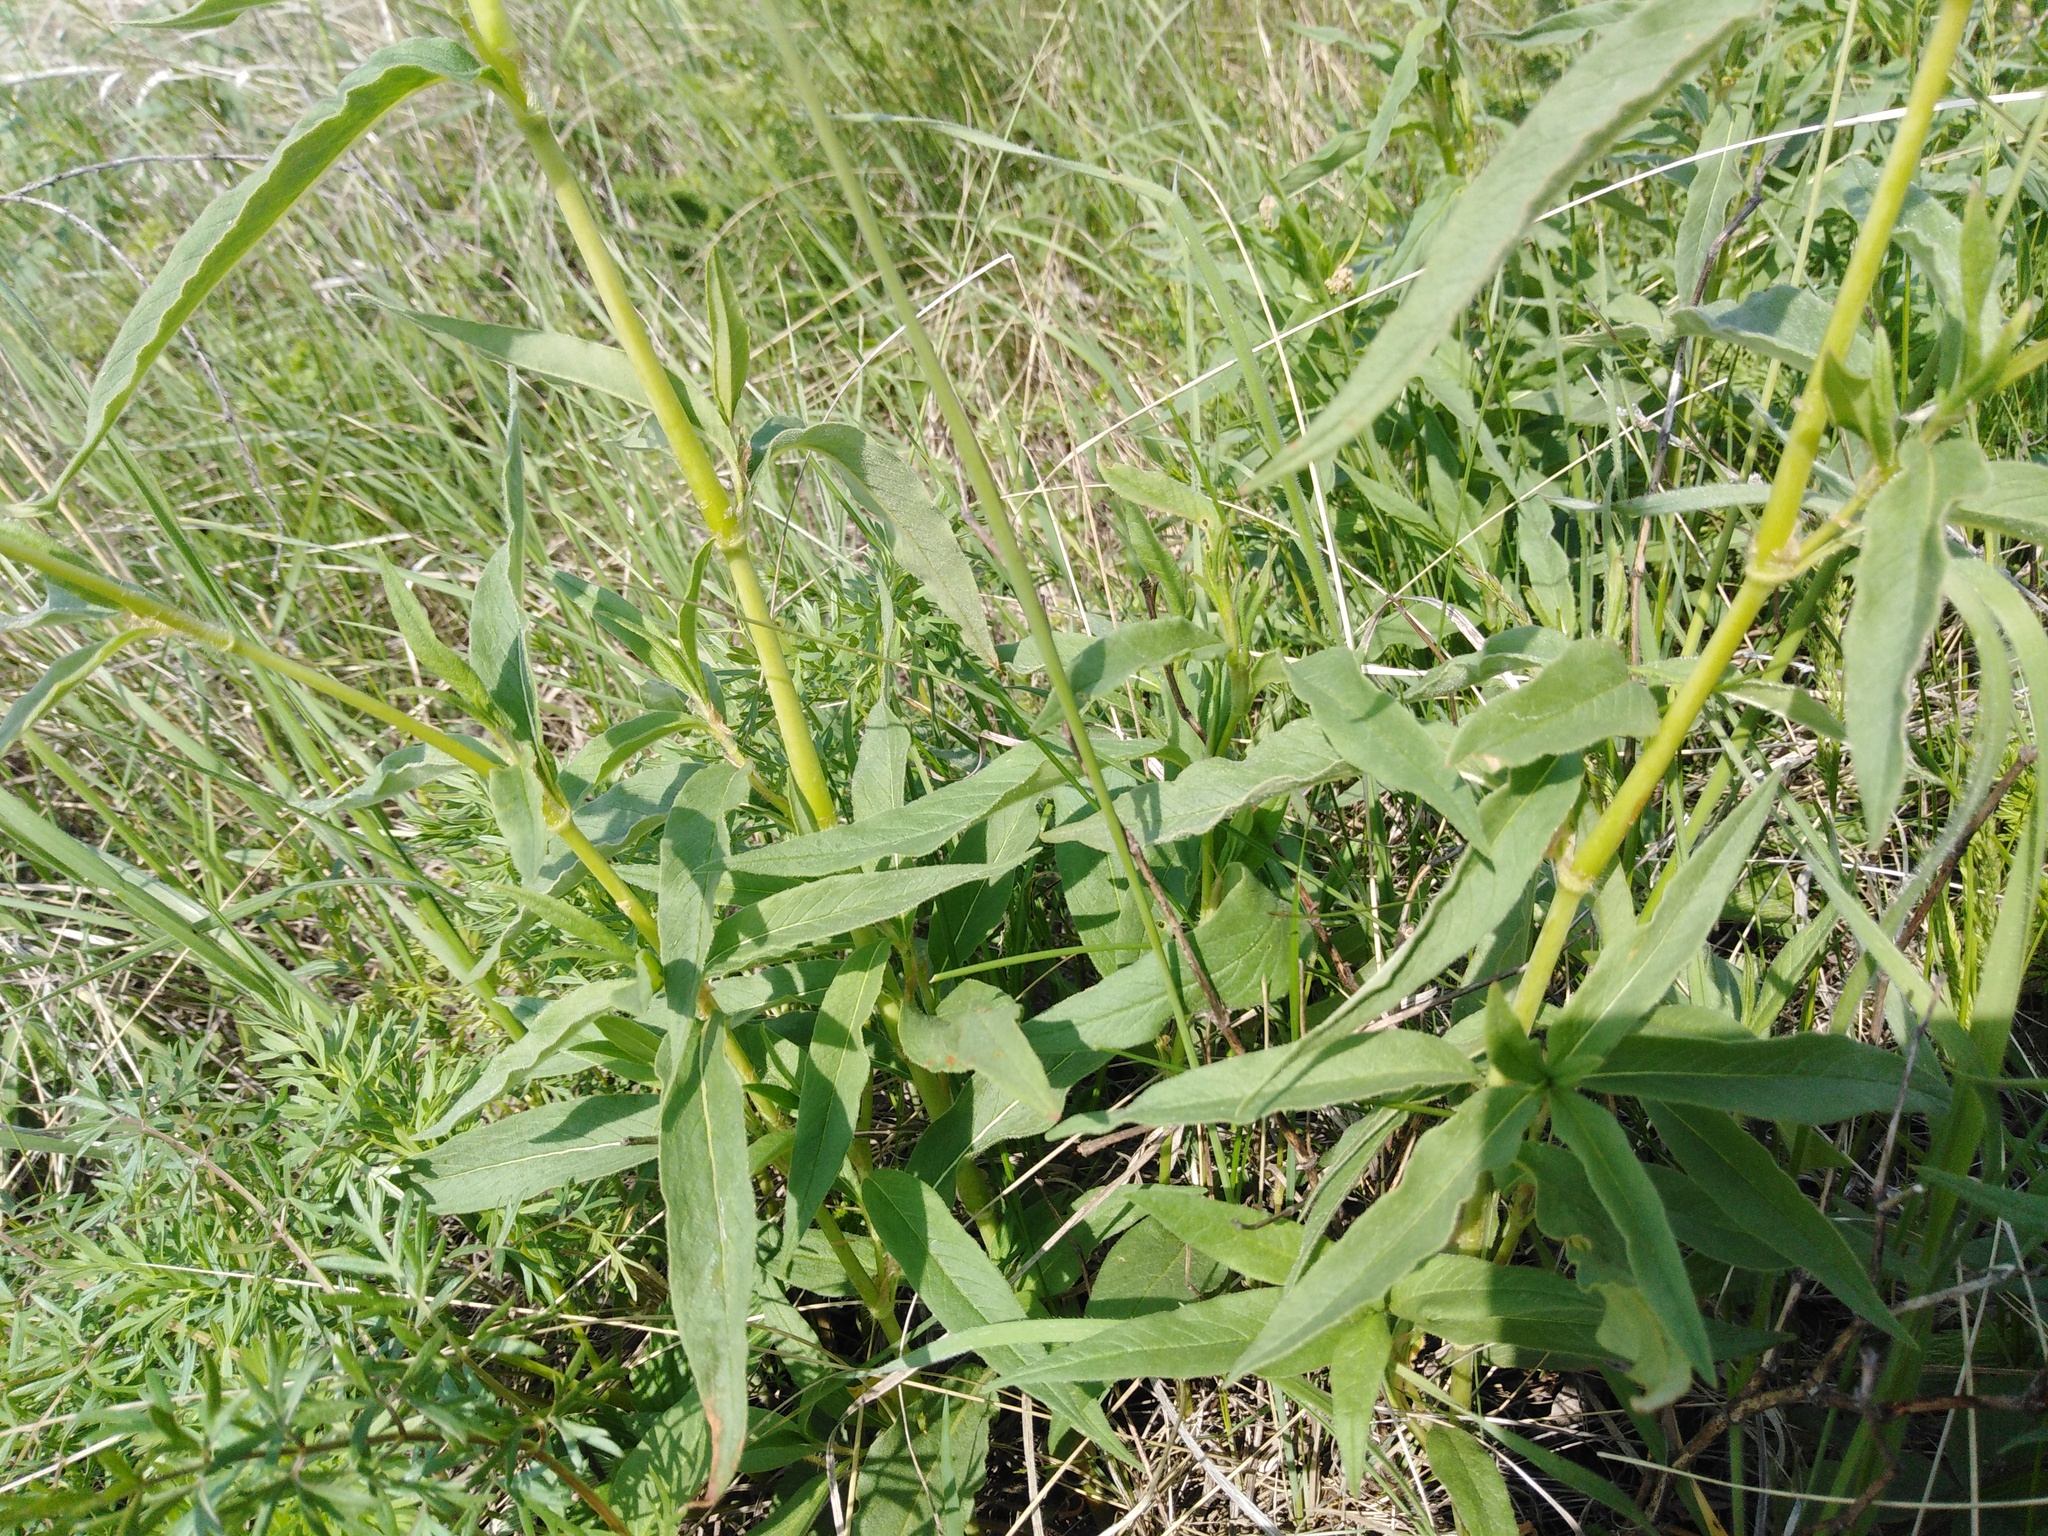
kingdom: Plantae
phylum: Tracheophyta
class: Magnoliopsida
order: Caryophyllales
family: Polygonaceae
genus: Koenigia
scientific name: Koenigia alpina
